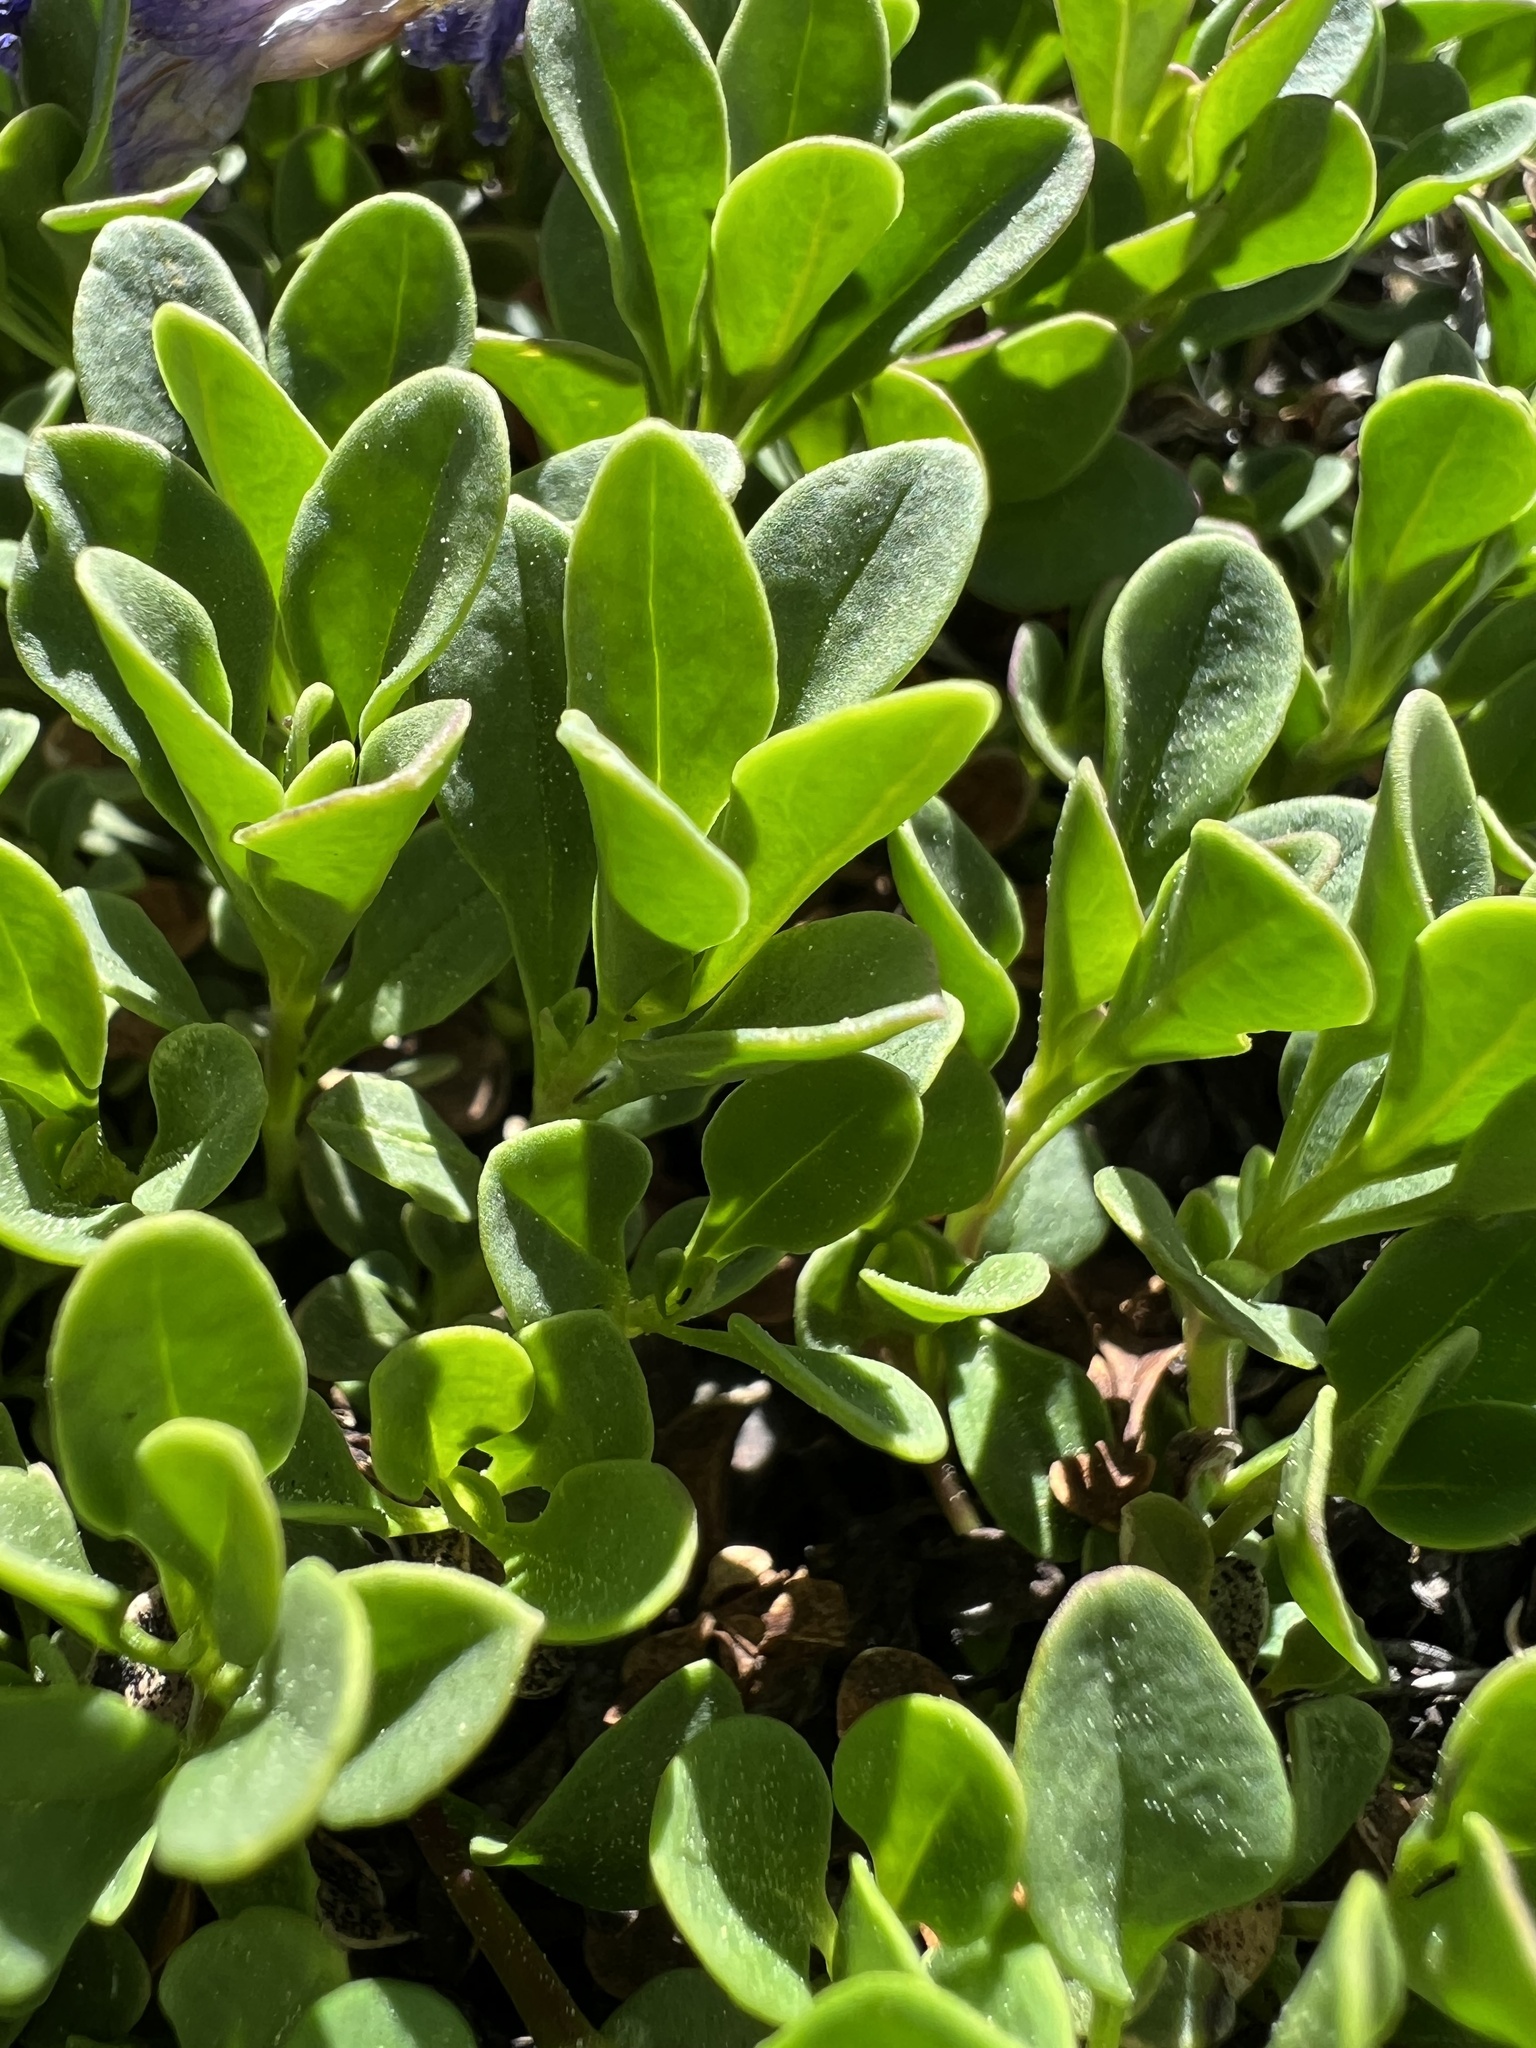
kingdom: Plantae
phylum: Tracheophyta
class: Magnoliopsida
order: Lamiales
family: Plantaginaceae
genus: Penstemon
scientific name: Penstemon davidsonii
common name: Davidson's penstemon
